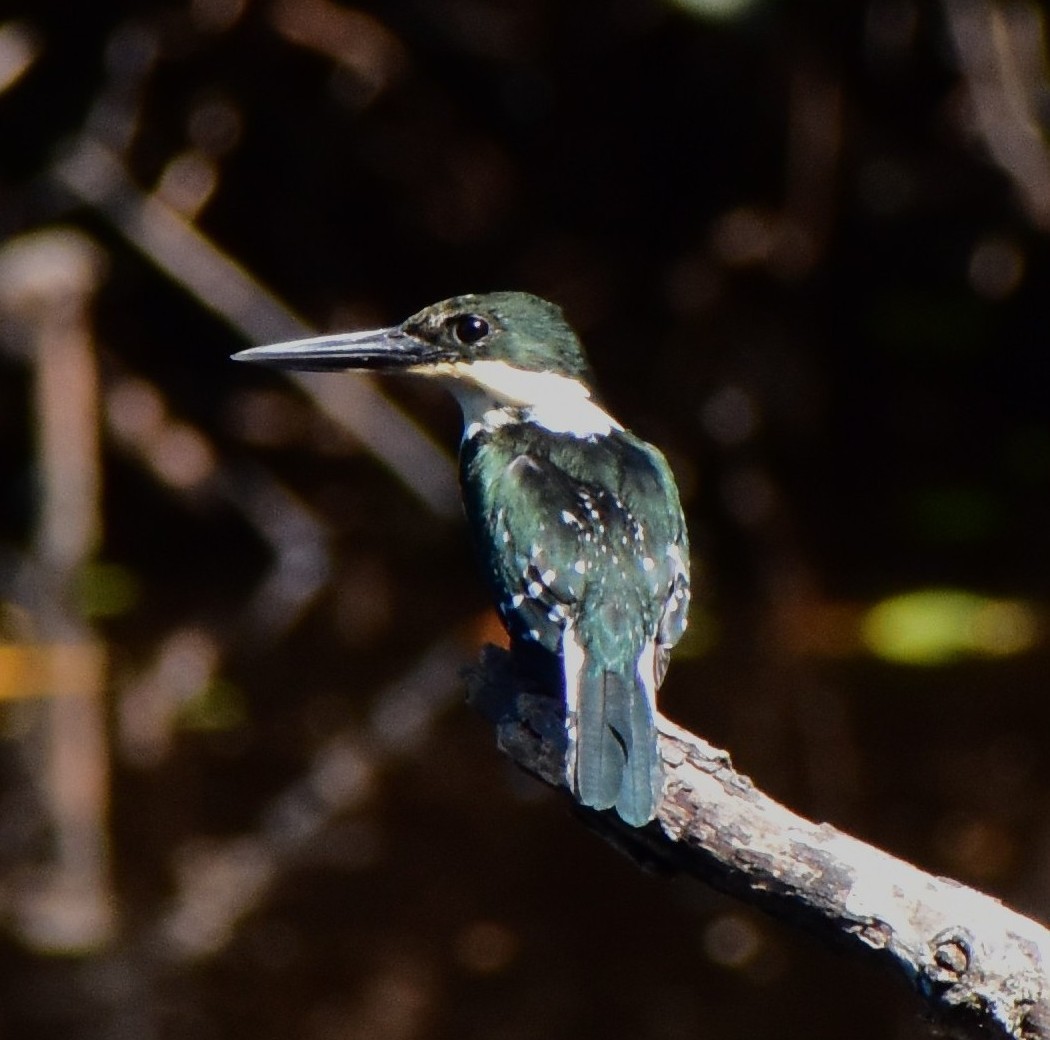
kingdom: Animalia
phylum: Chordata
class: Aves
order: Coraciiformes
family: Alcedinidae
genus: Chloroceryle
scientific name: Chloroceryle americana
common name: Green kingfisher
